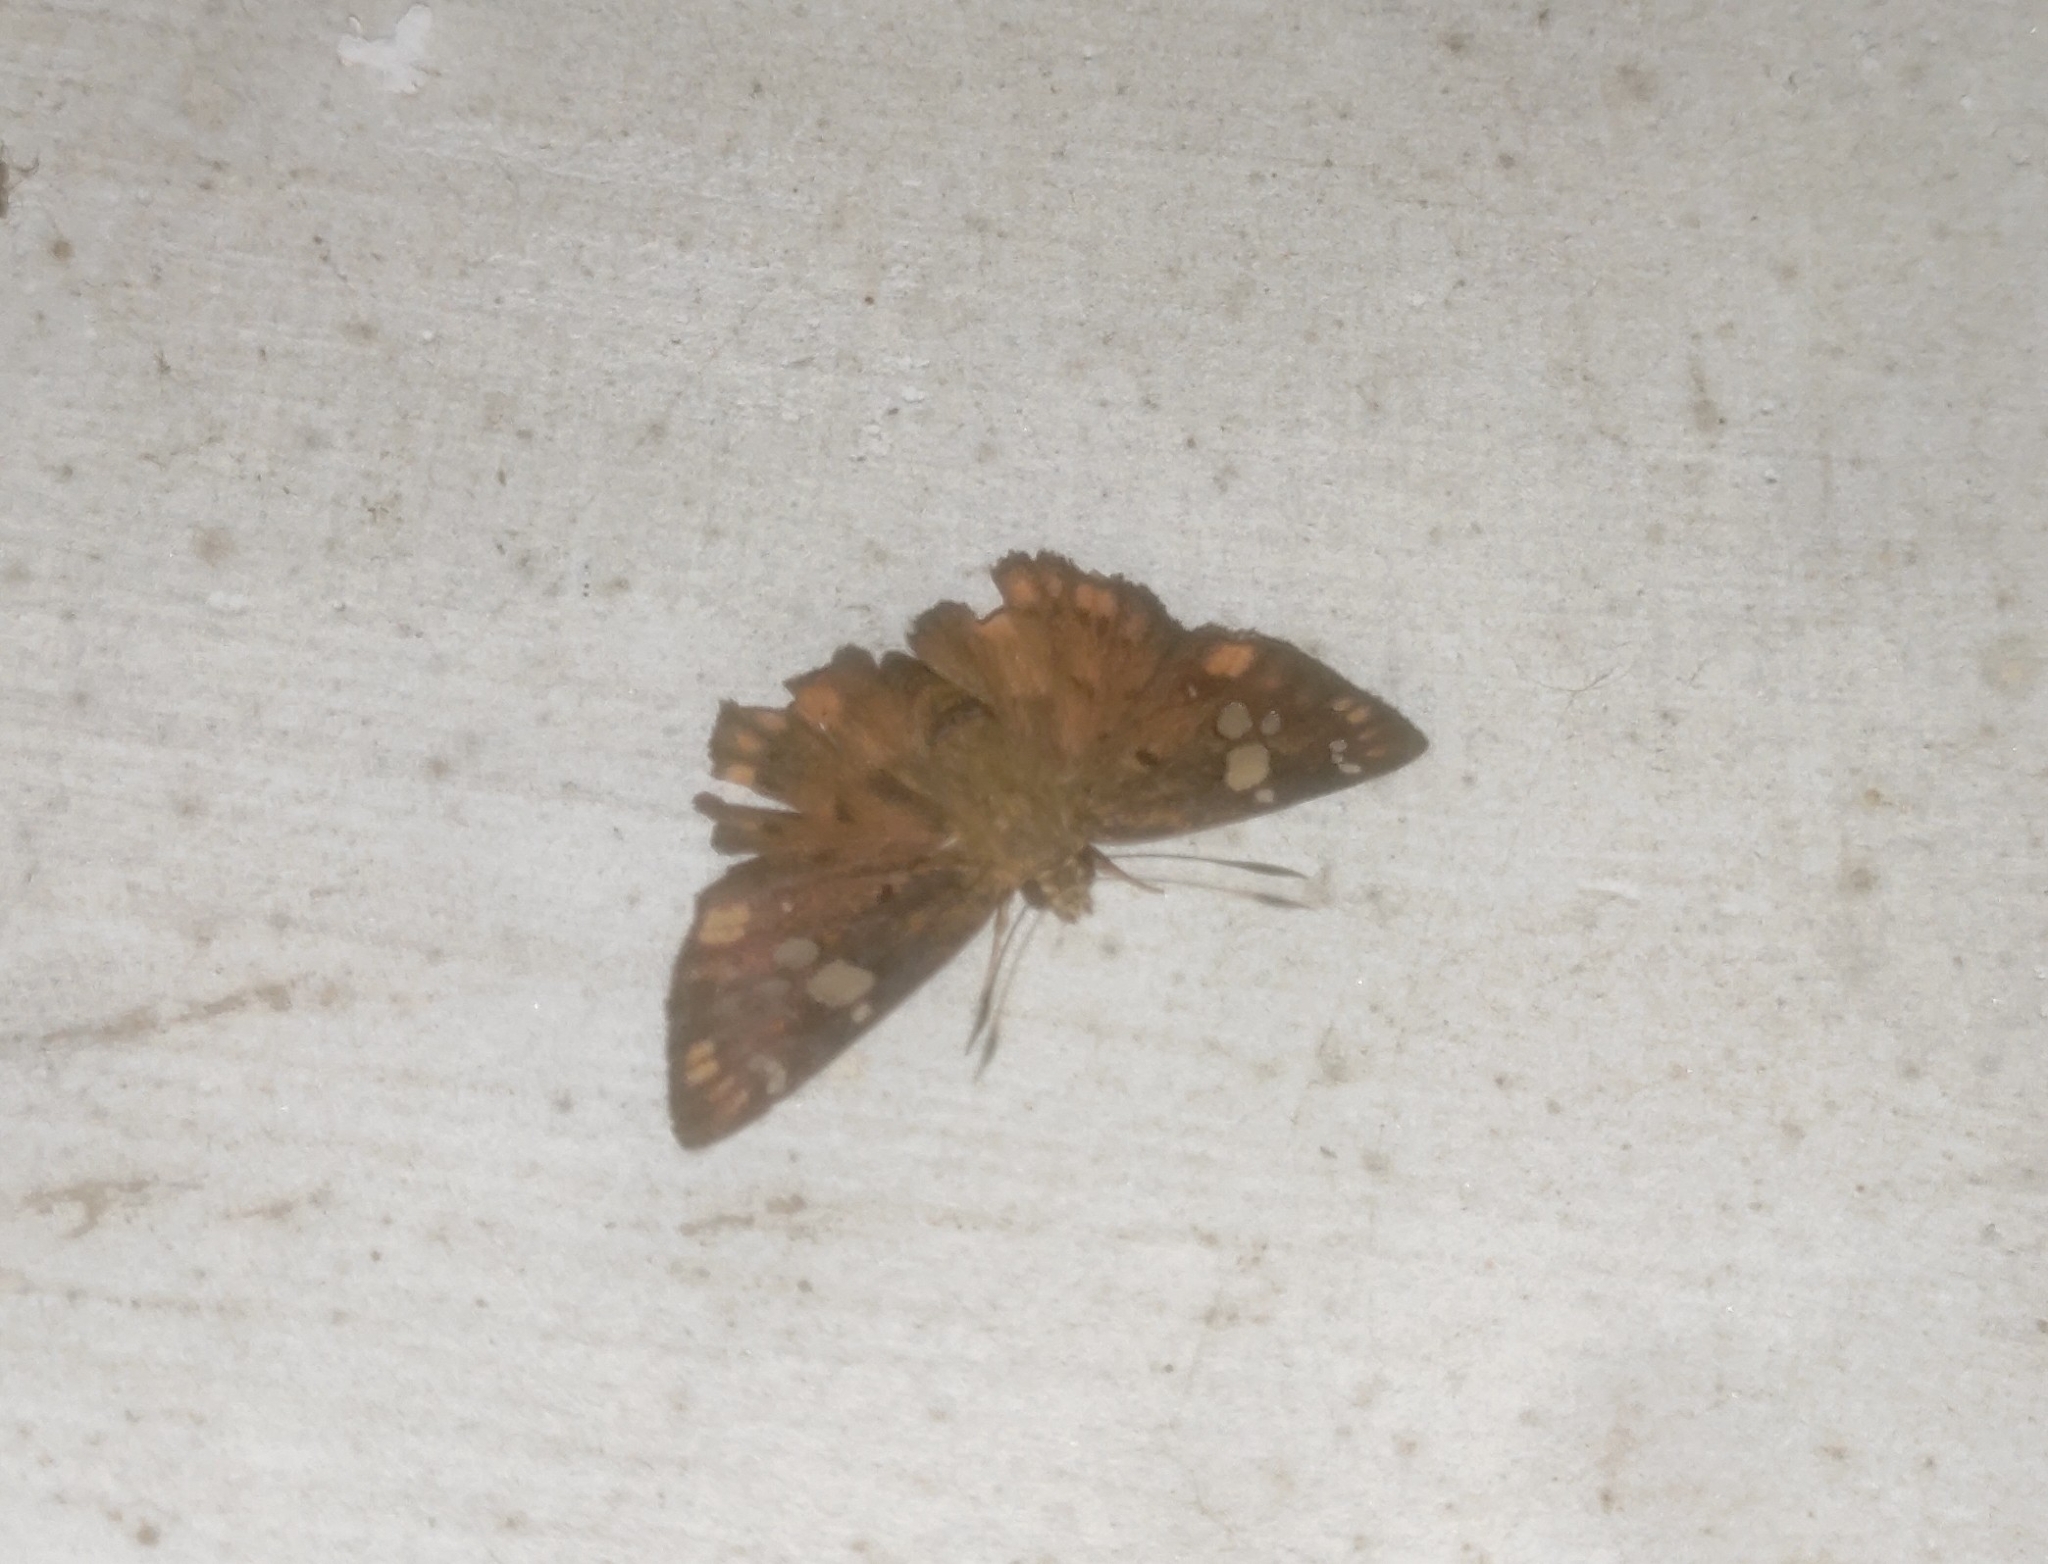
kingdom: Animalia
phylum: Arthropoda
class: Insecta
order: Lepidoptera
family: Hesperiidae
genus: Coladenia
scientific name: Coladenia
